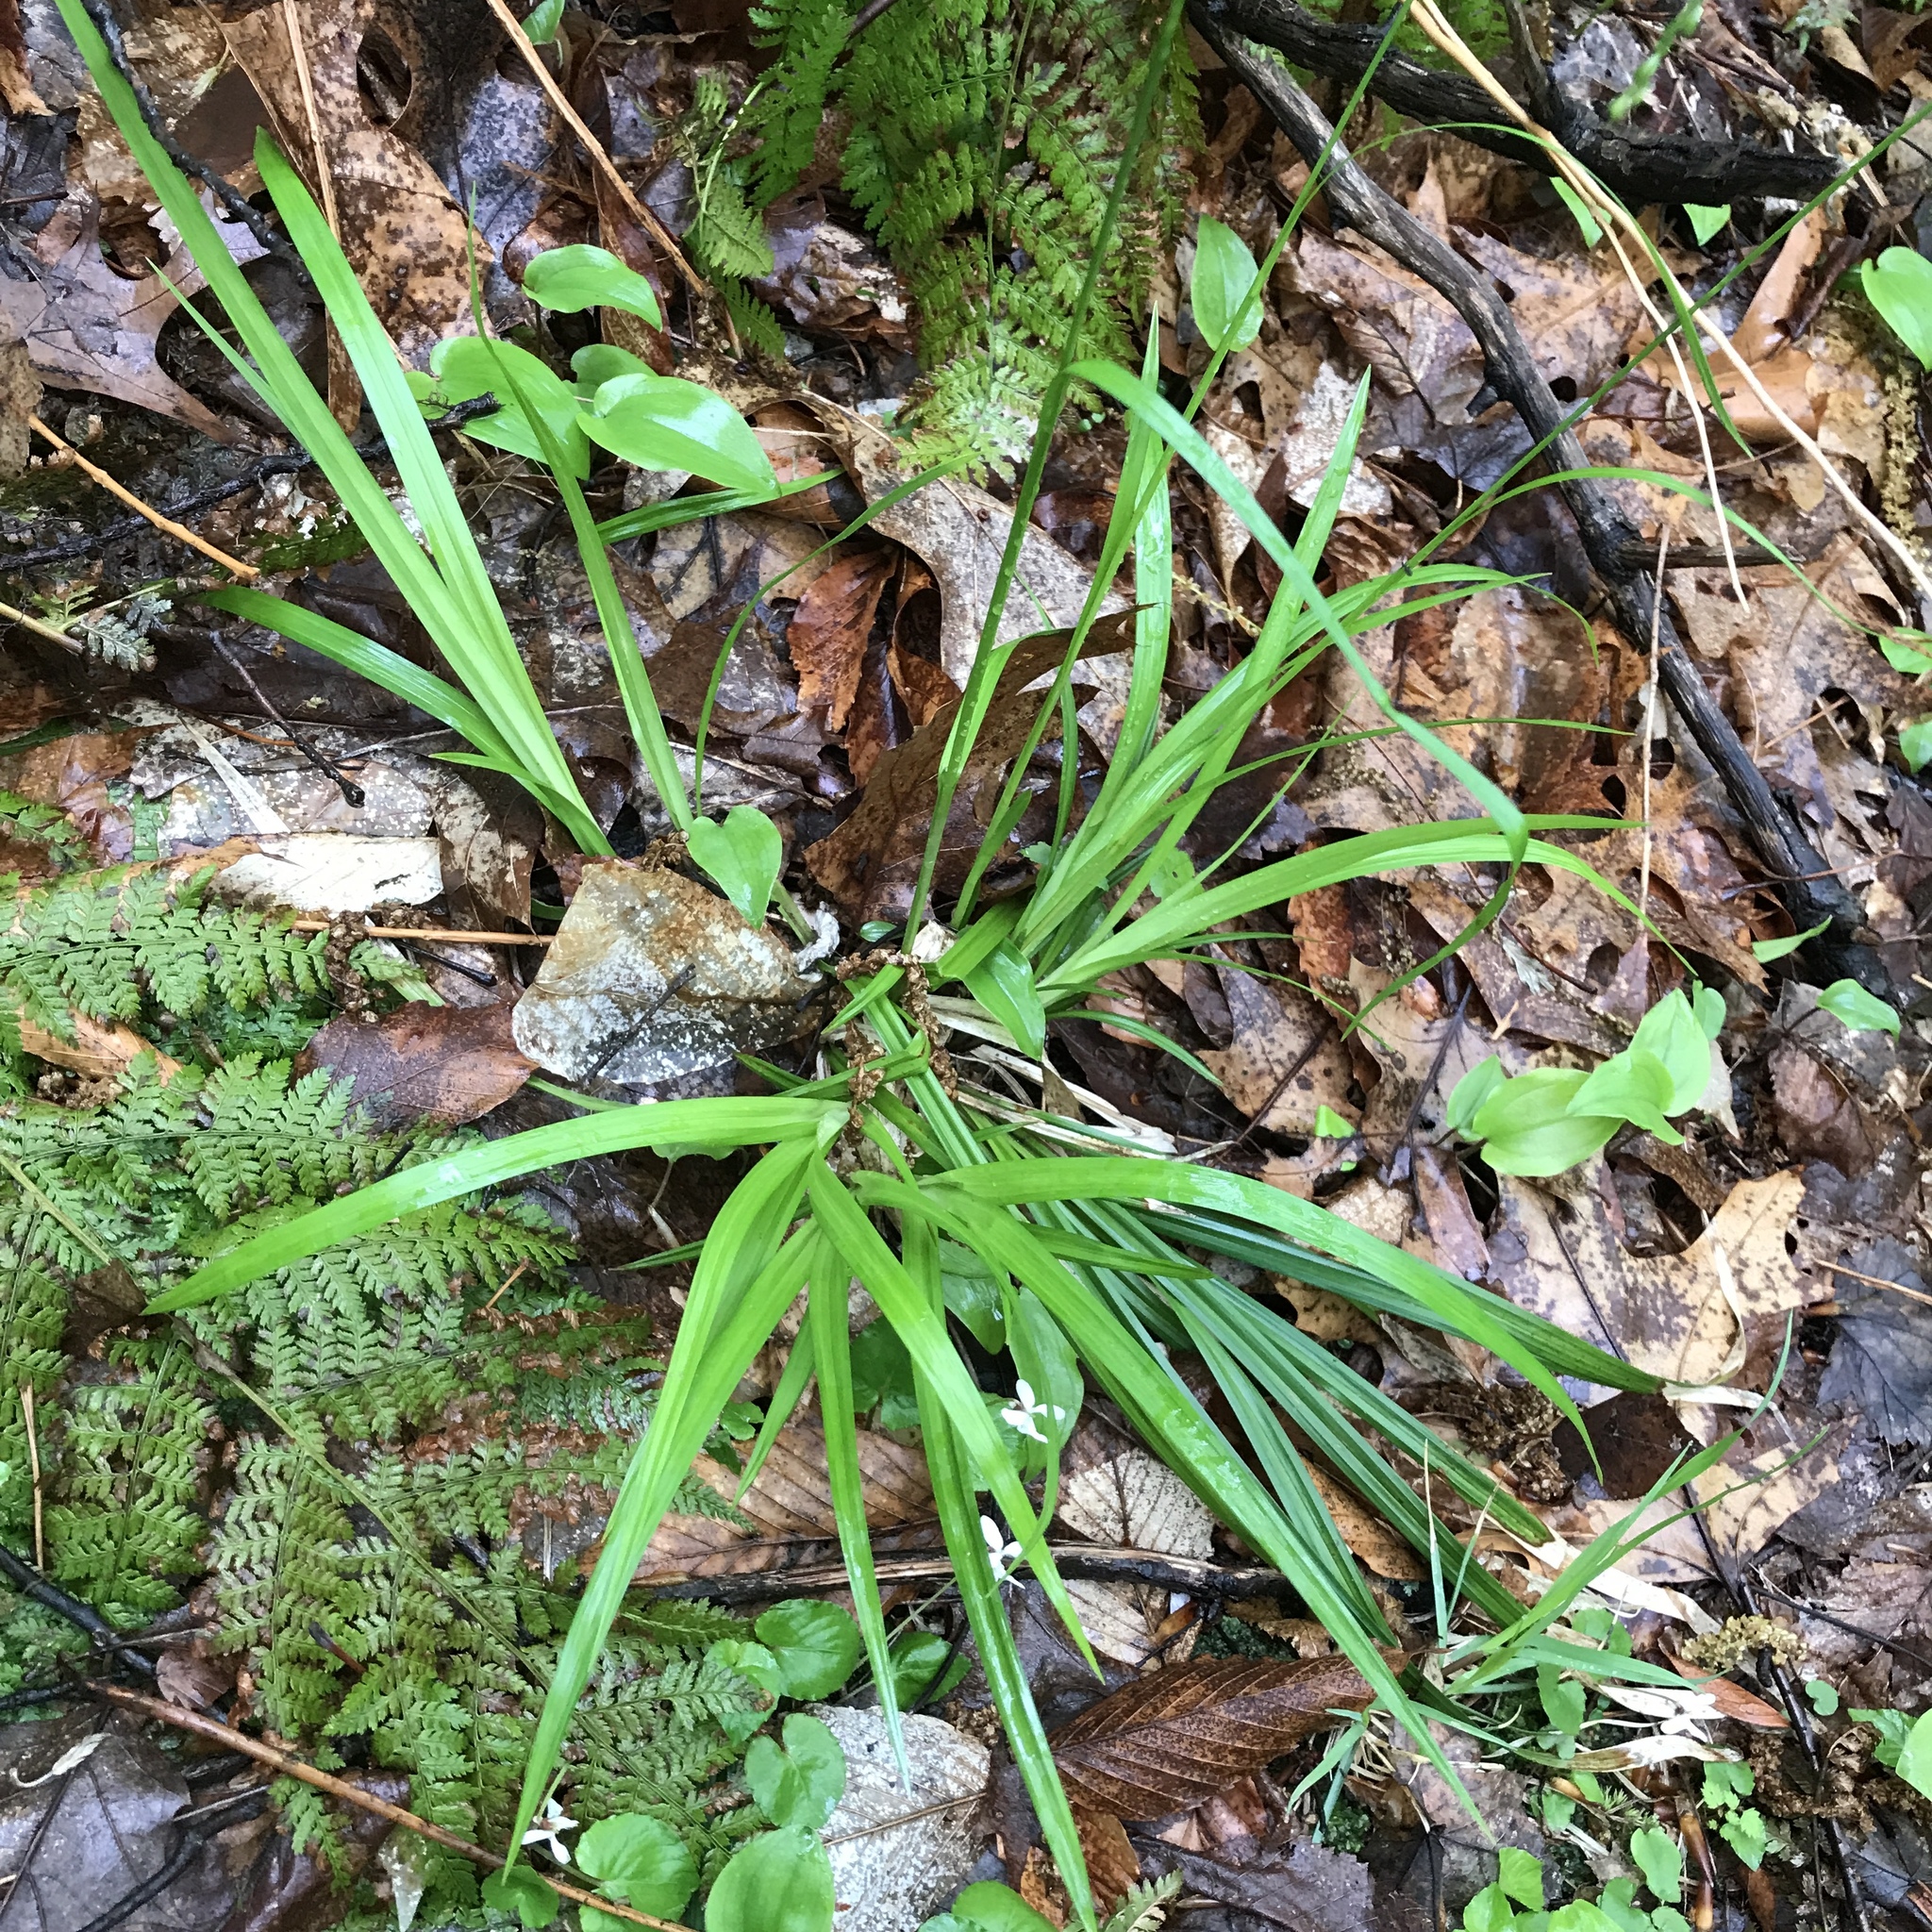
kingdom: Plantae
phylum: Tracheophyta
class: Liliopsida
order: Poales
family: Cyperaceae
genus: Carex
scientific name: Carex arctata
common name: Black sedge
